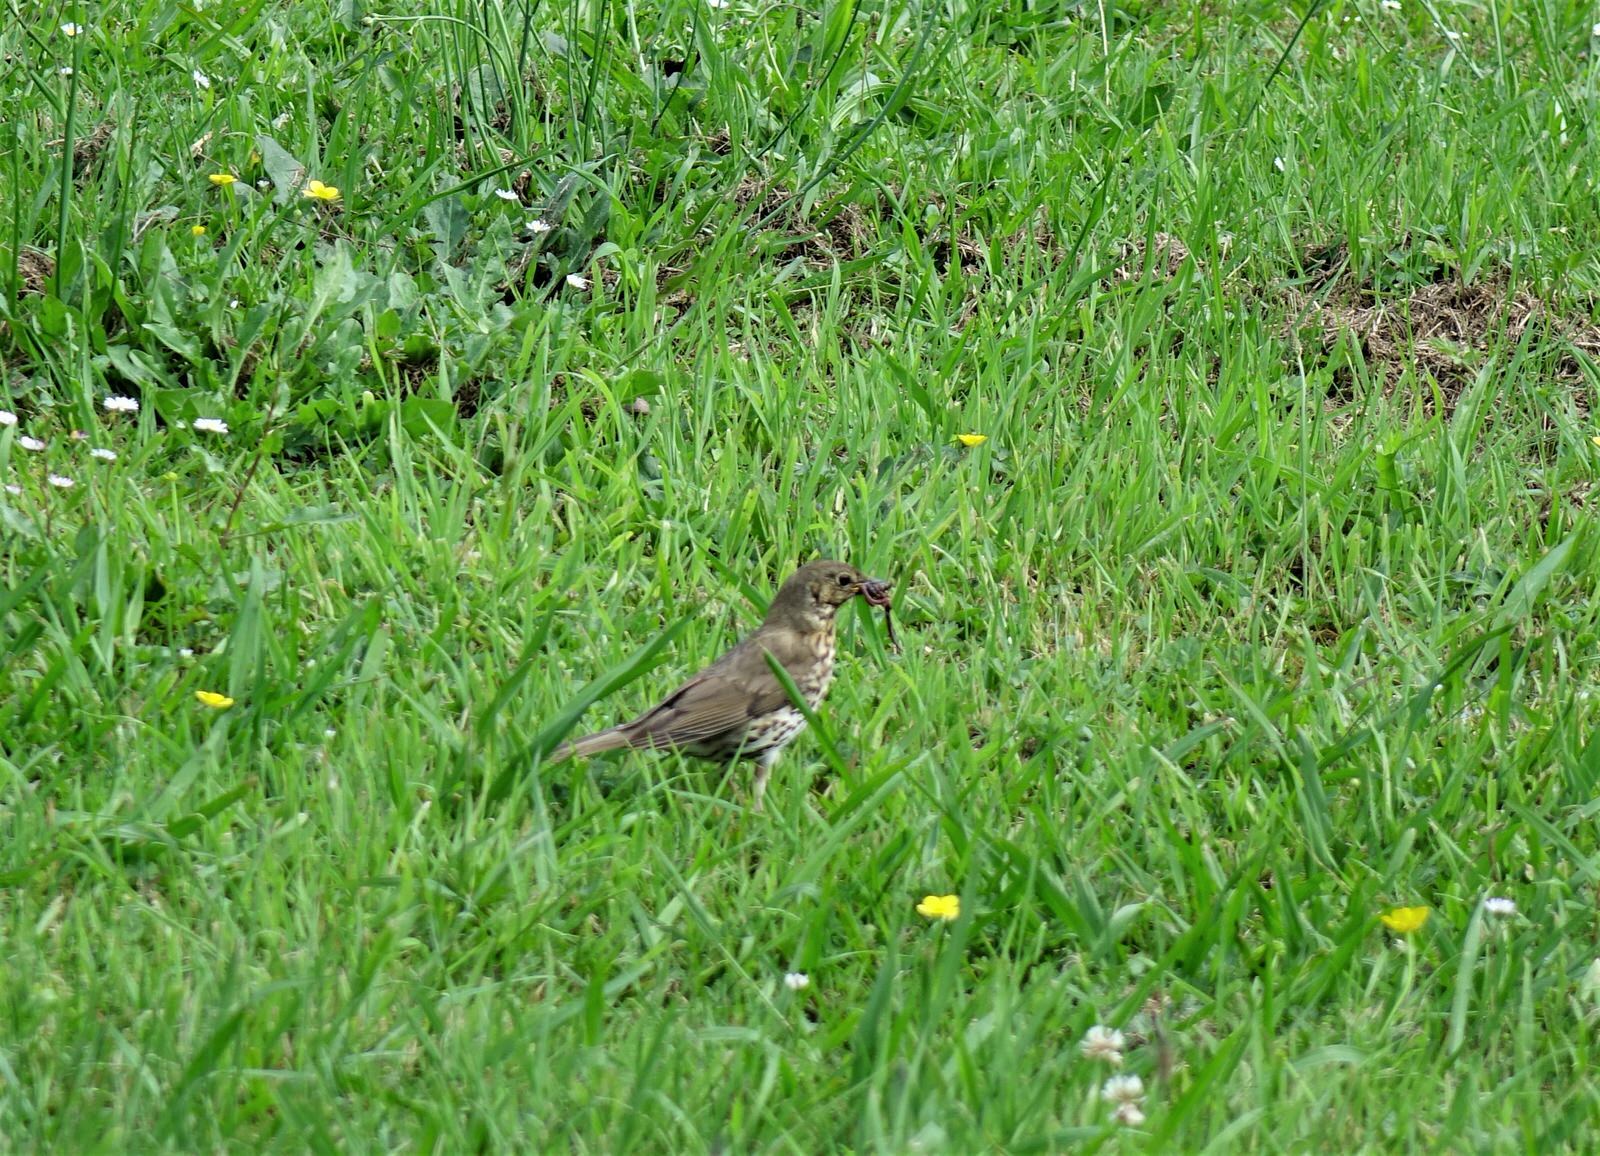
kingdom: Animalia
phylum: Chordata
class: Aves
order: Passeriformes
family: Turdidae
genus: Turdus
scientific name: Turdus philomelos
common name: Song thrush
